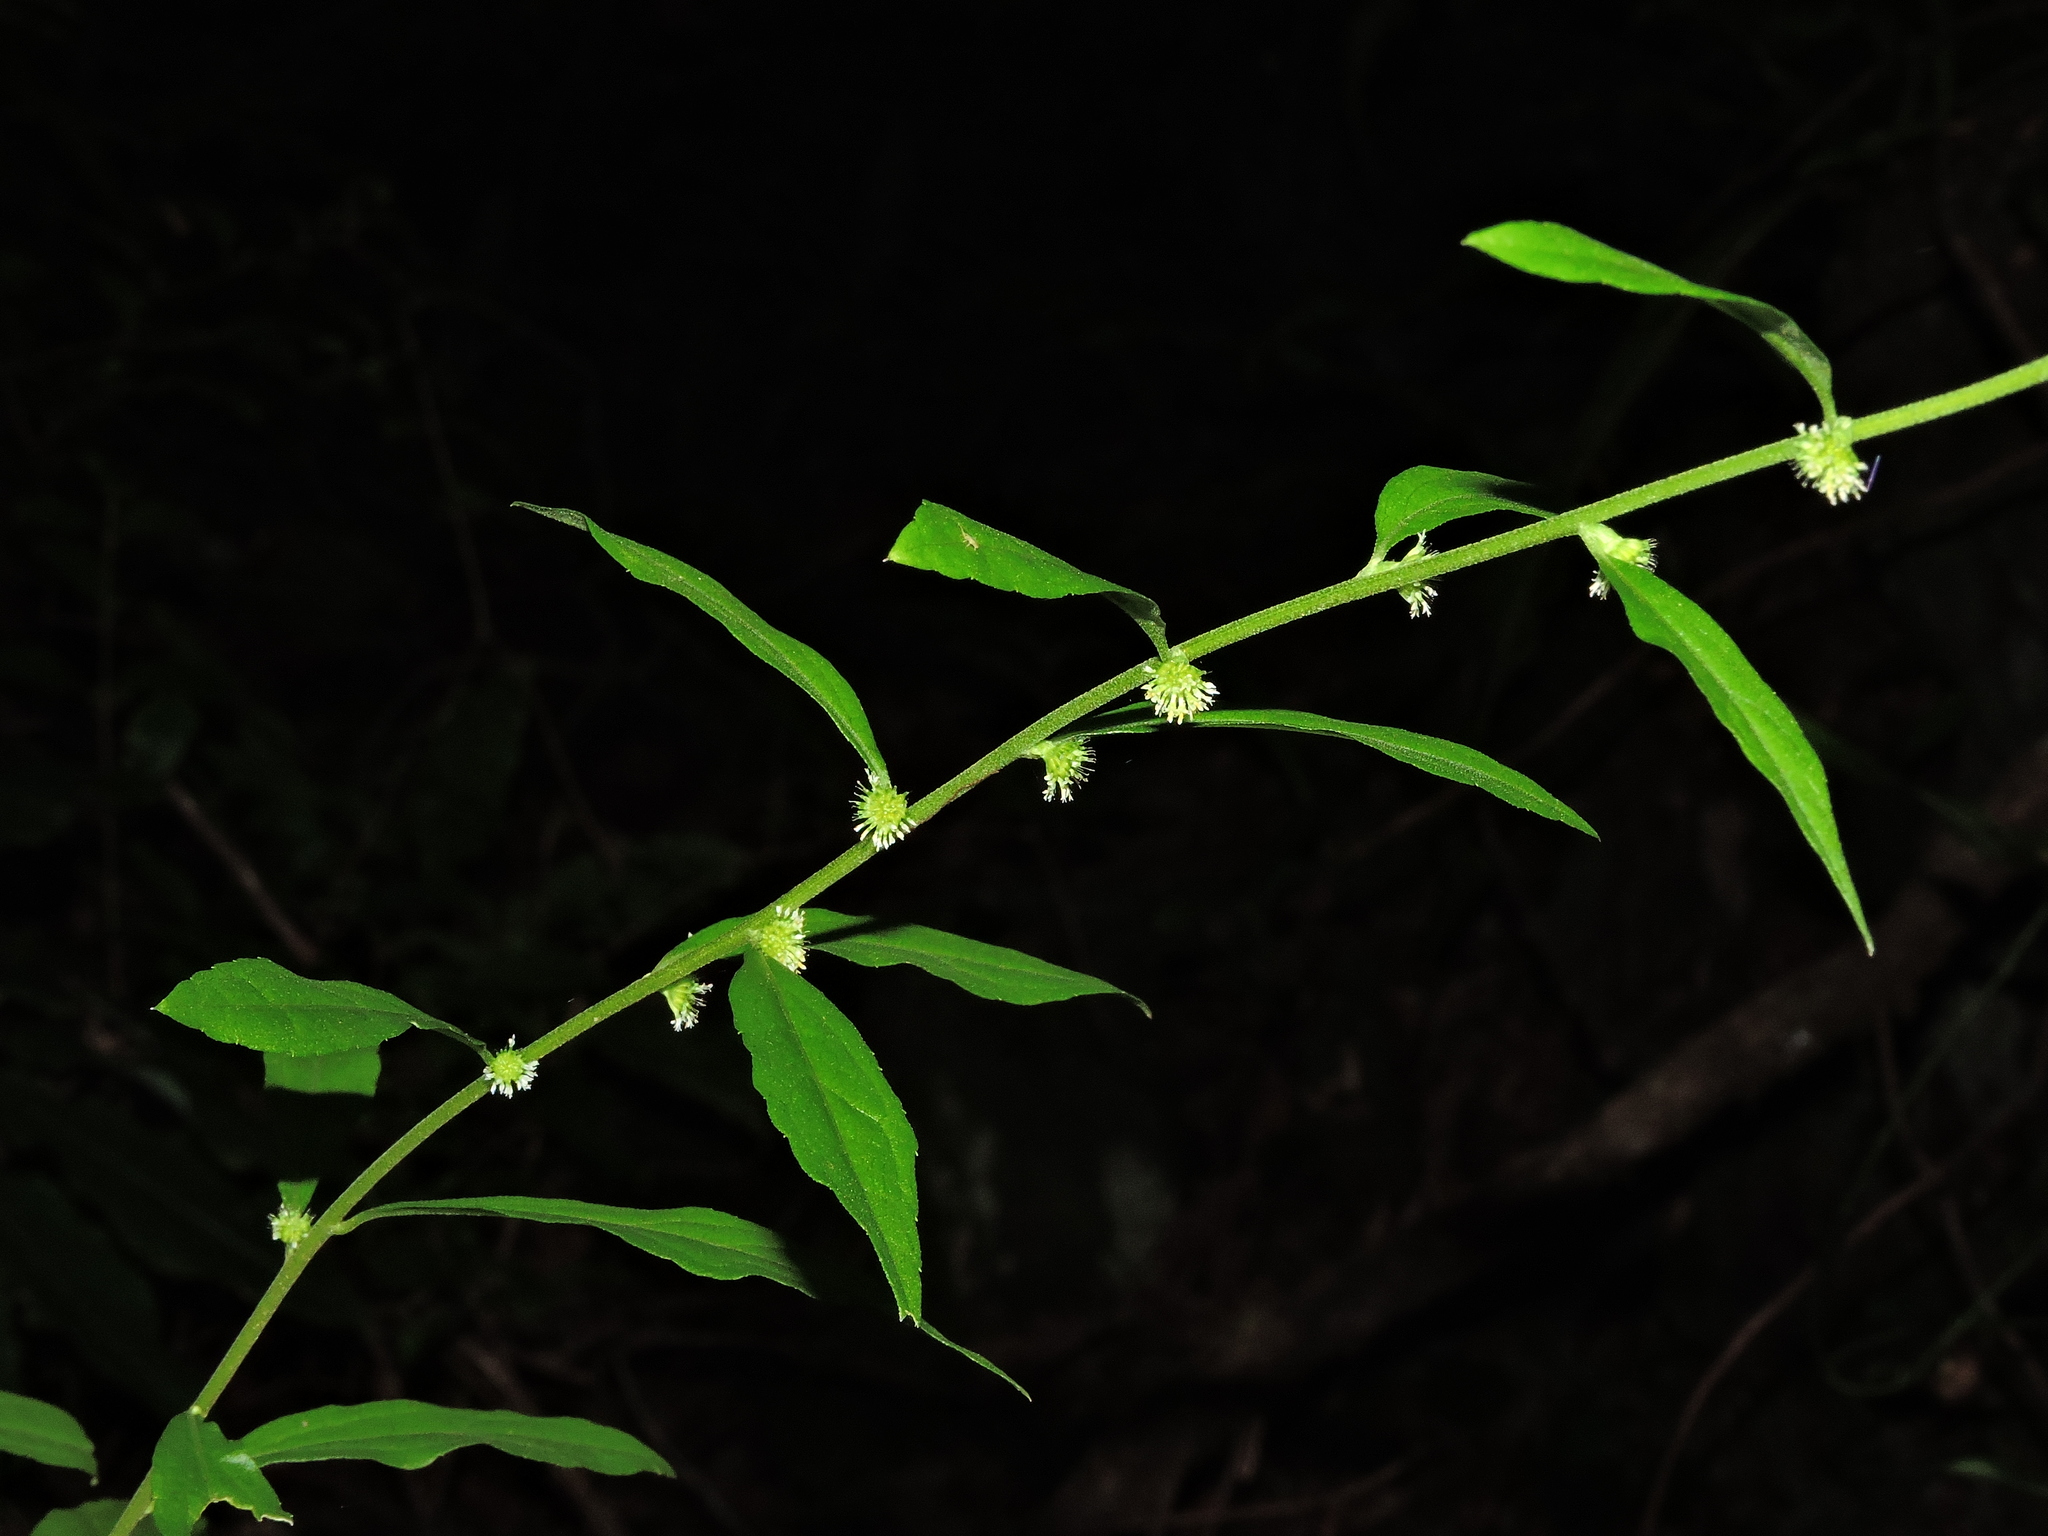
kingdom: Plantae
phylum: Tracheophyta
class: Magnoliopsida
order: Asterales
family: Asteraceae
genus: Rhynchospermum
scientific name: Rhynchospermum verticillatum
